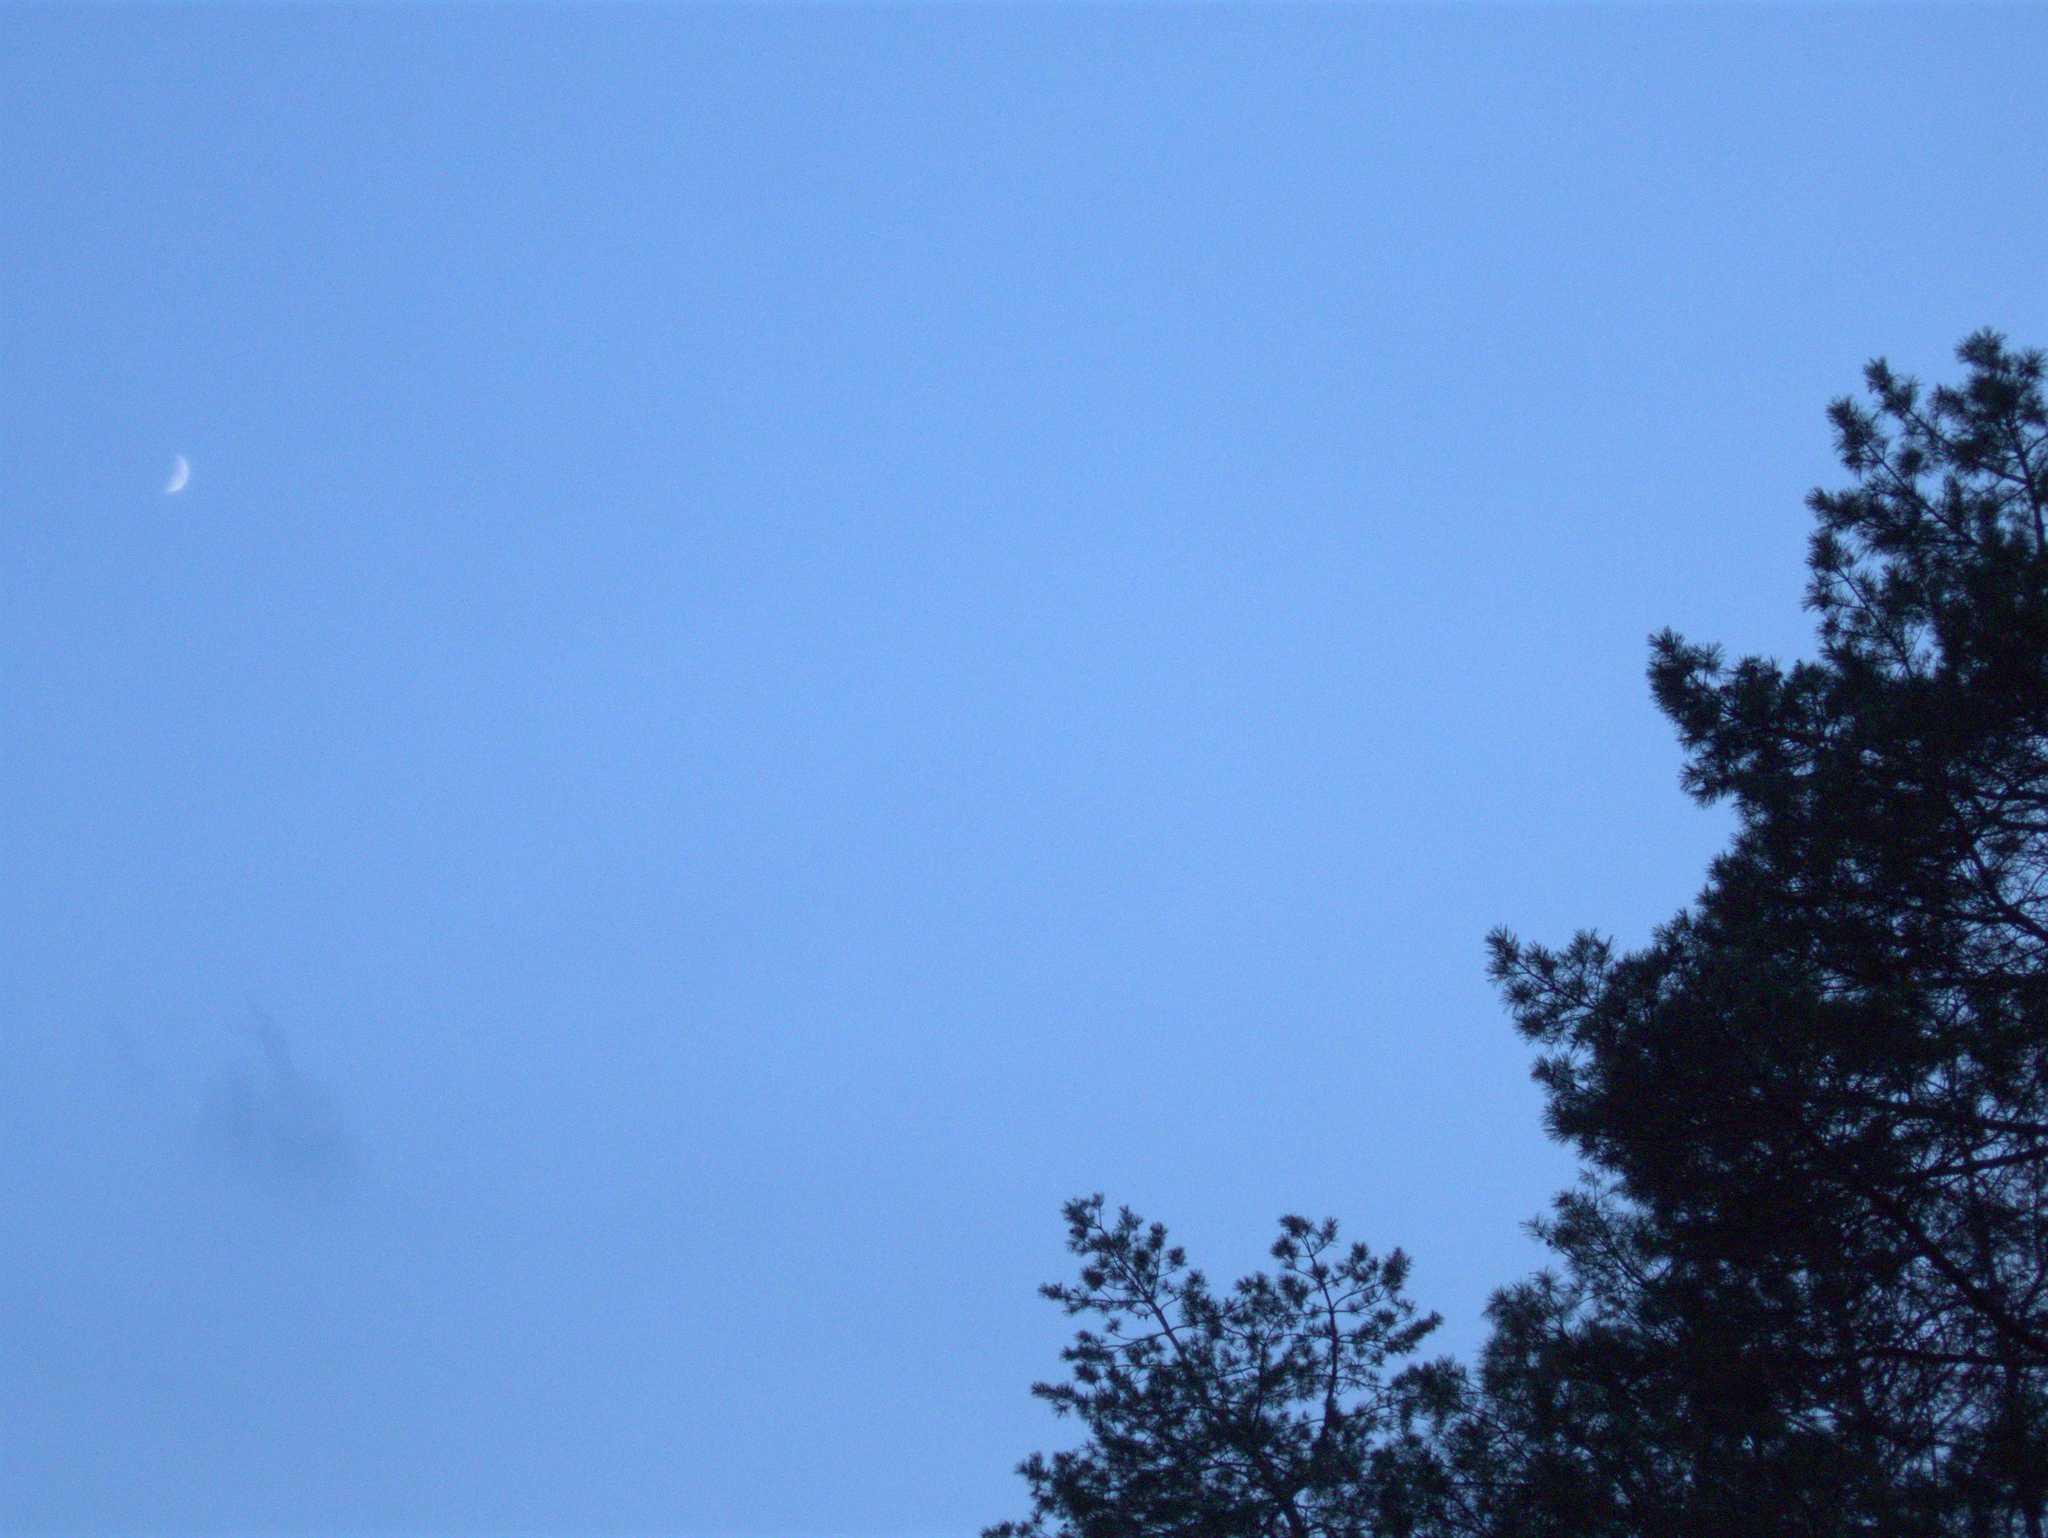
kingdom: Plantae
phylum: Tracheophyta
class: Pinopsida
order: Pinales
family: Pinaceae
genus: Pinus
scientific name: Pinus sylvestris
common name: Scots pine
